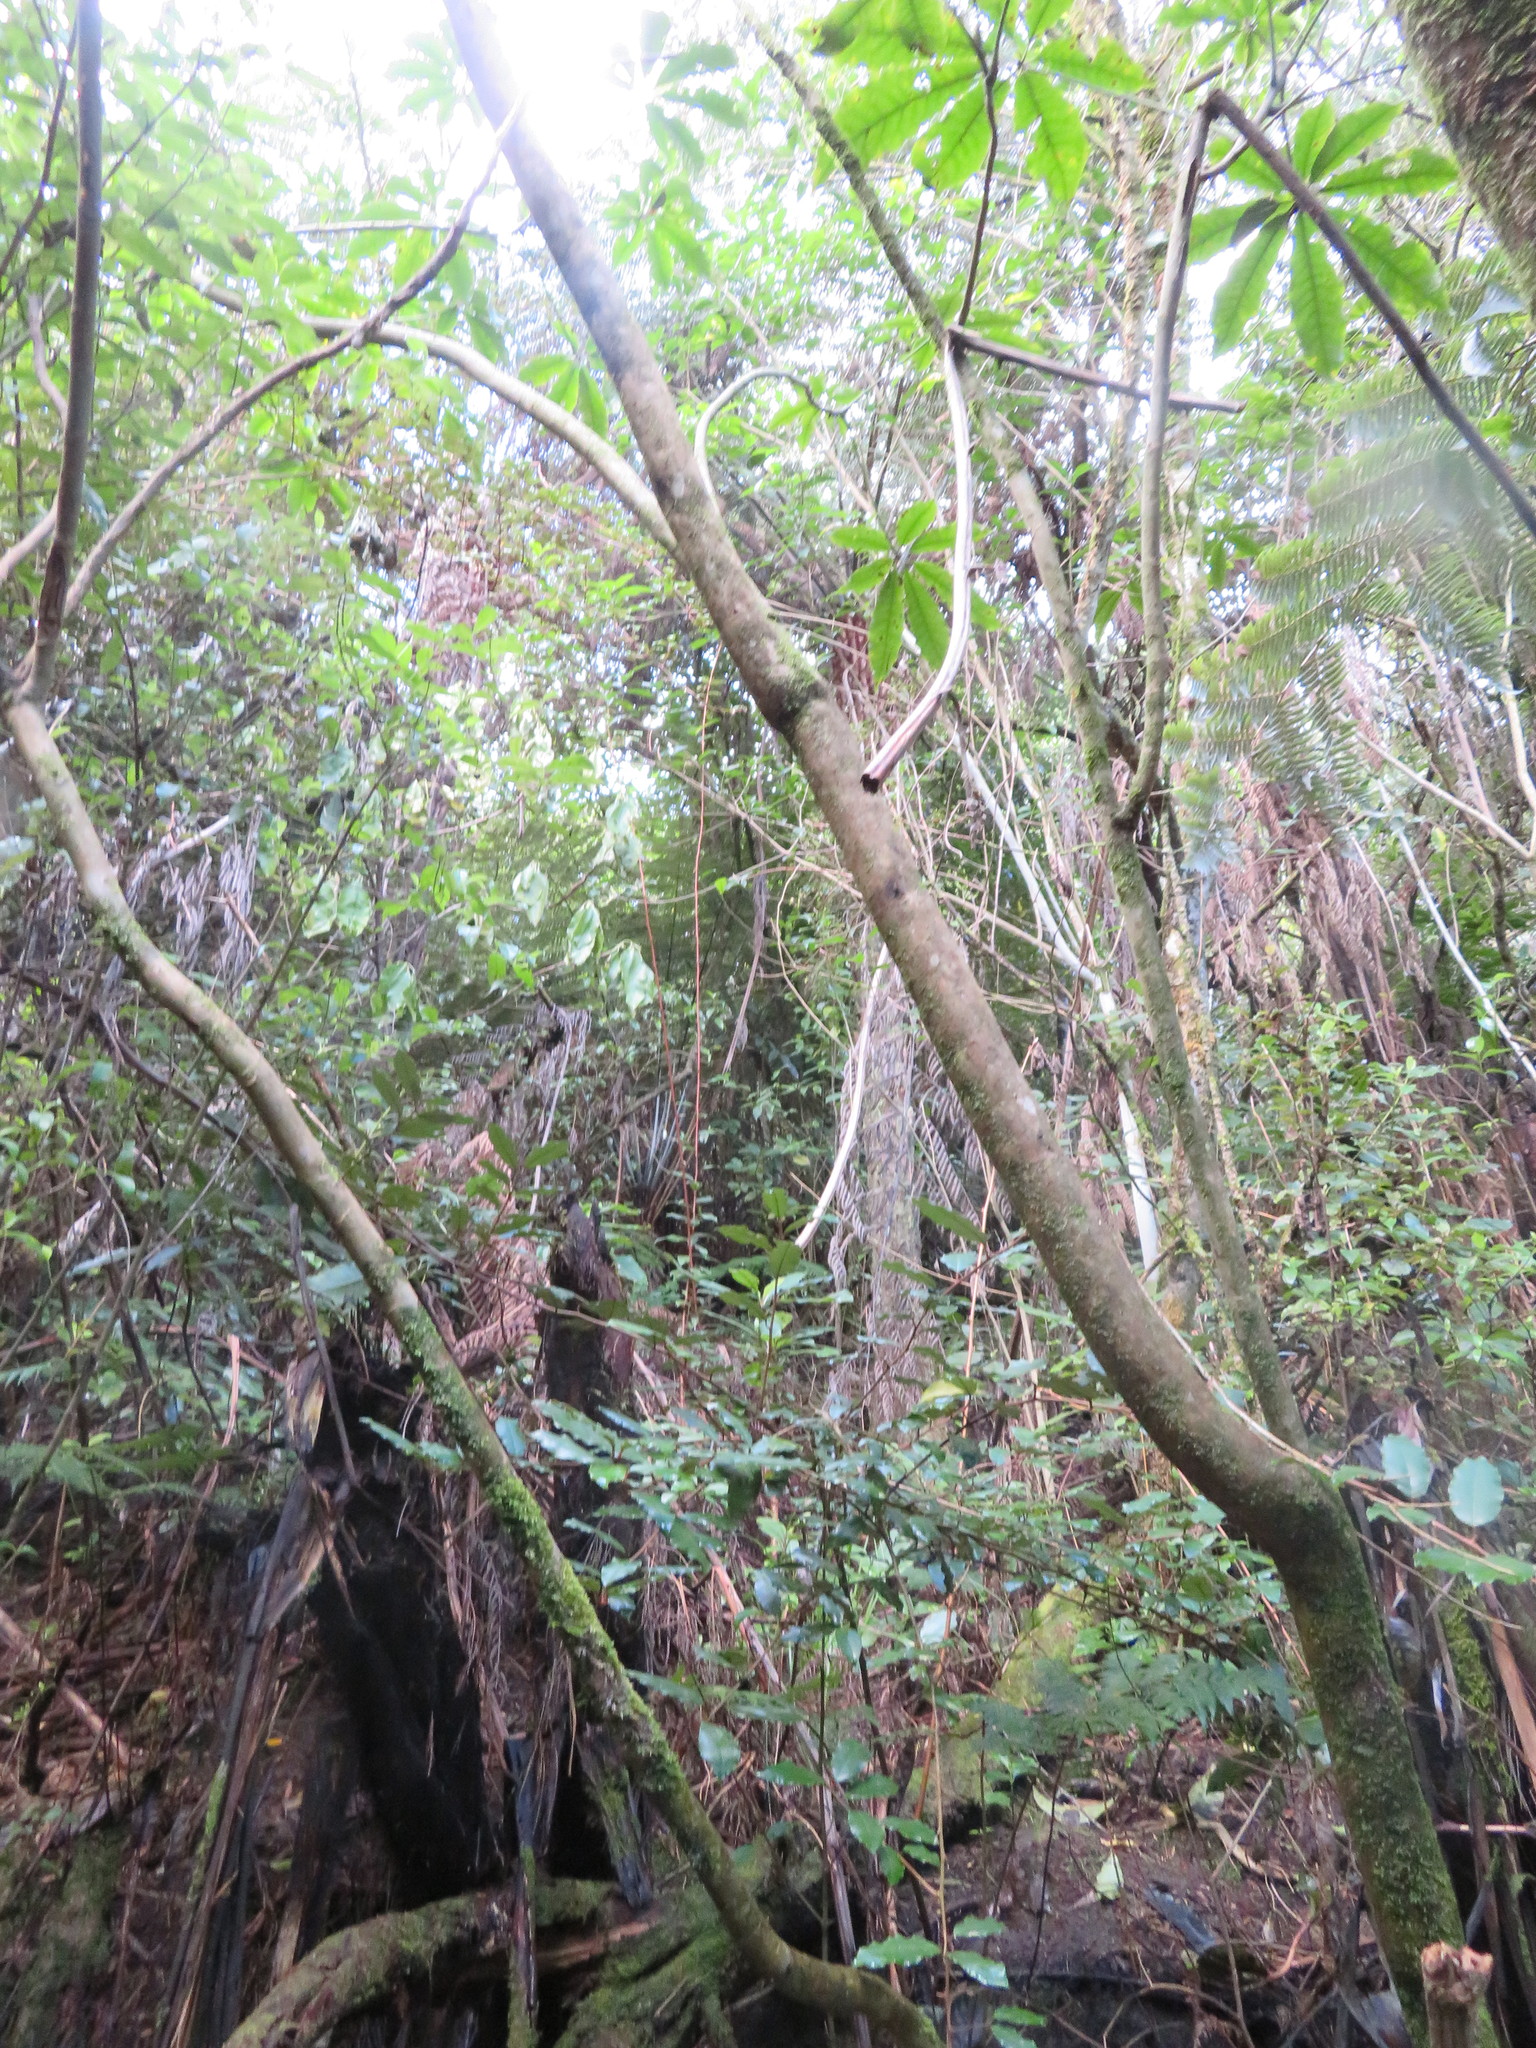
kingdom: Plantae
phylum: Tracheophyta
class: Magnoliopsida
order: Apiales
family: Araliaceae
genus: Schefflera
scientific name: Schefflera digitata
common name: Pate
